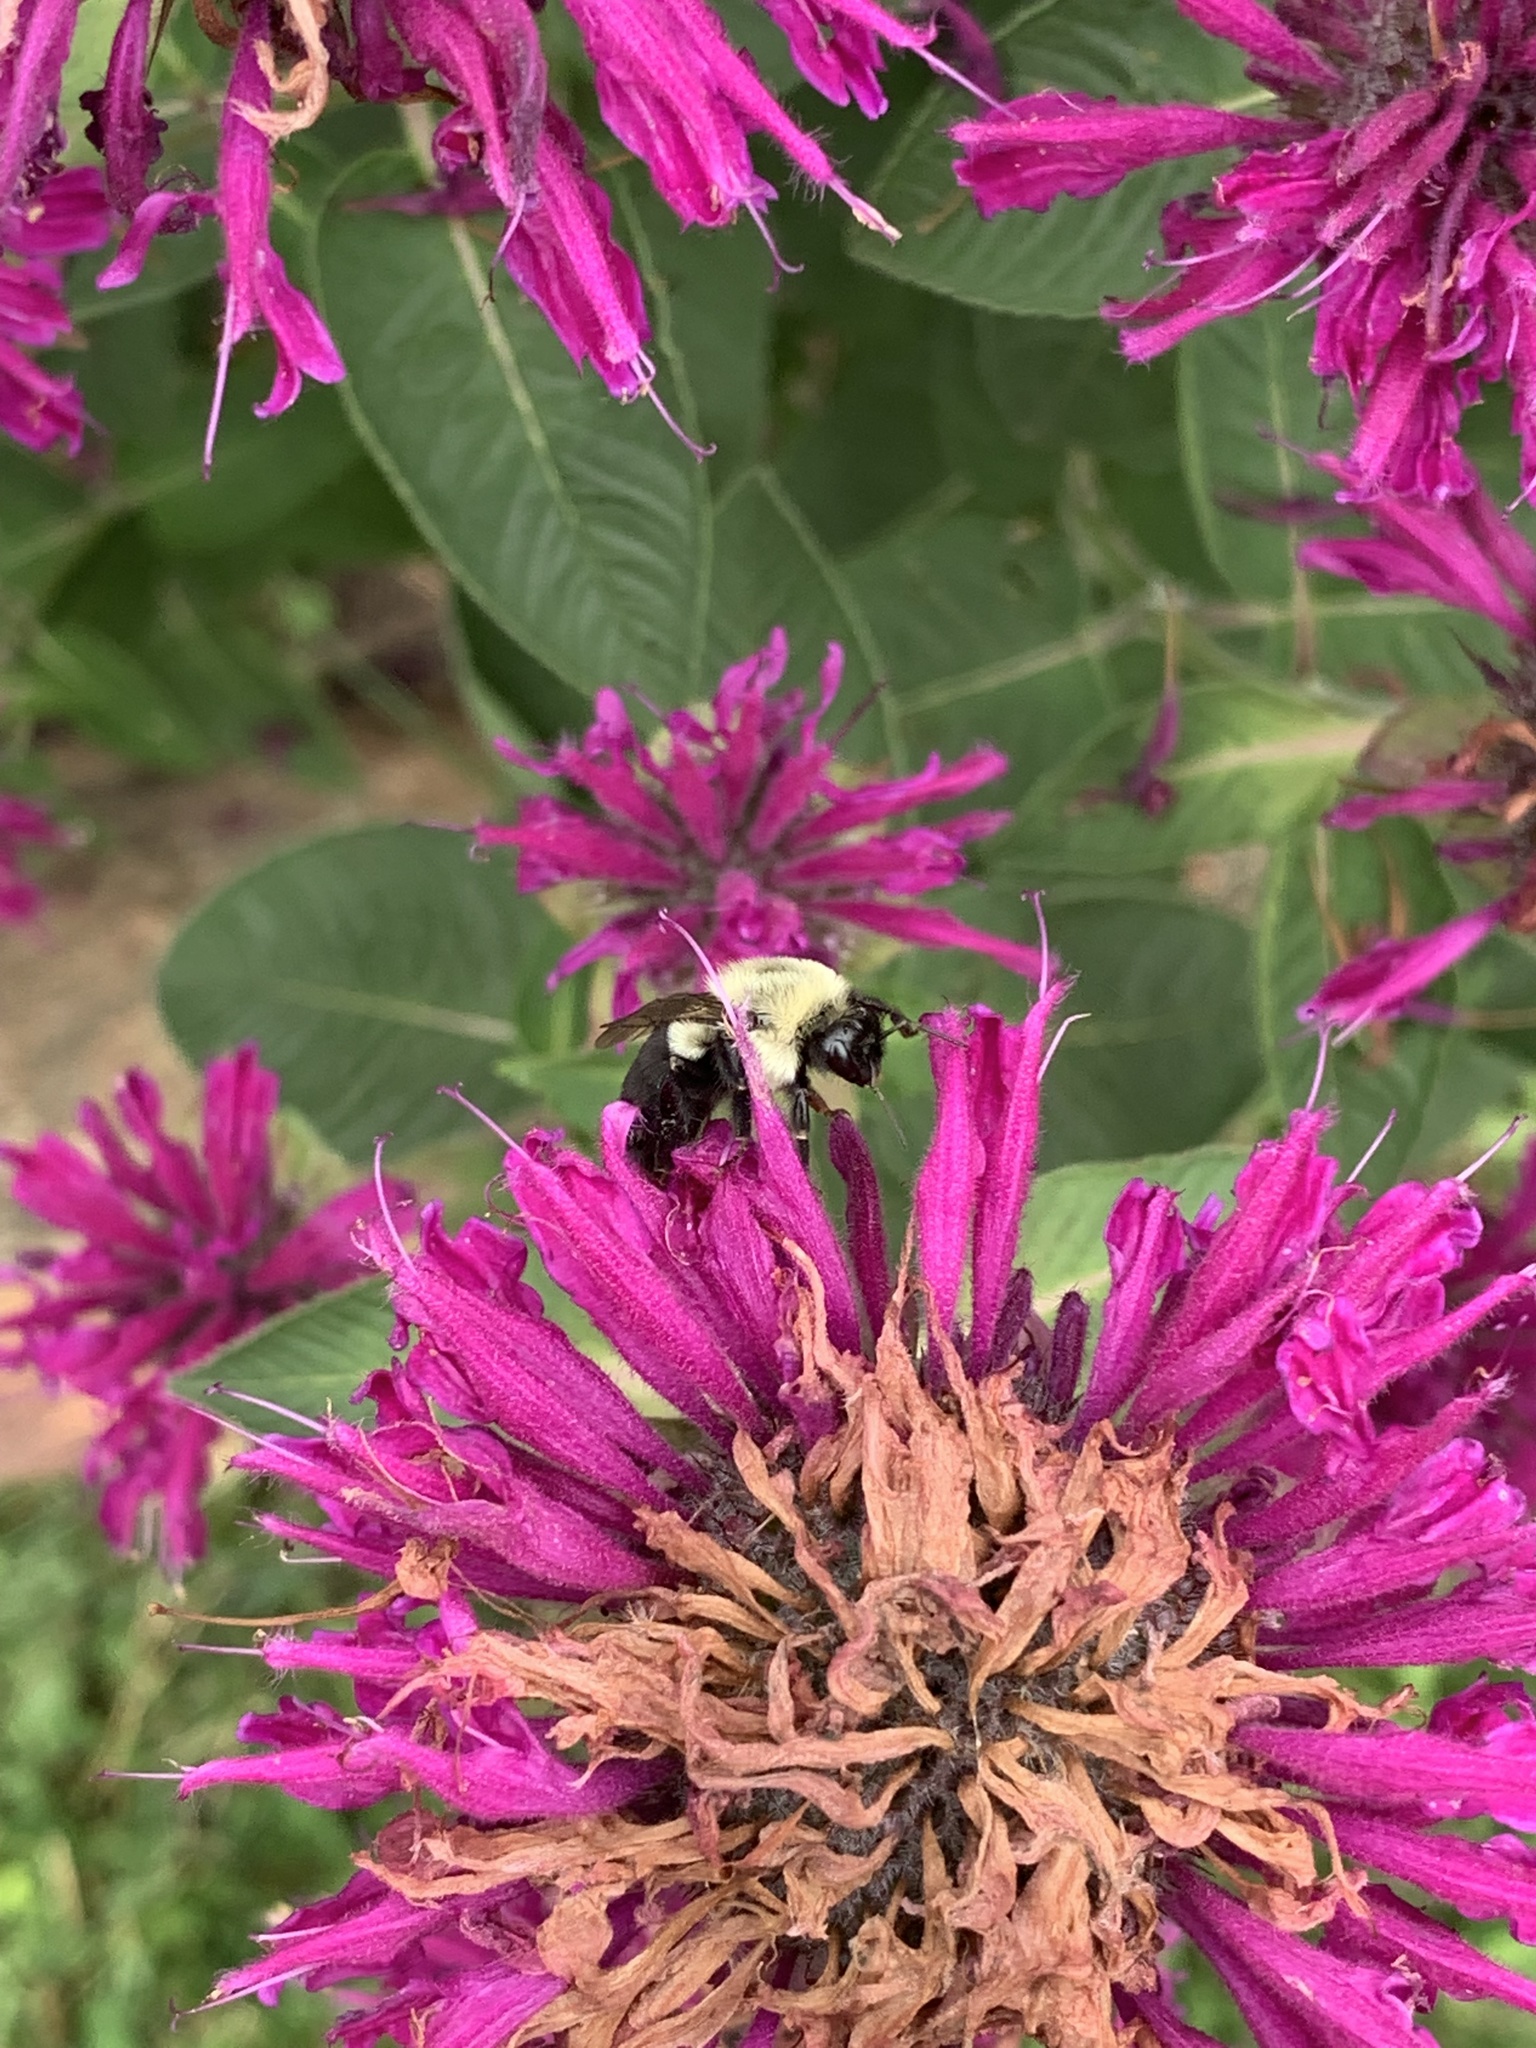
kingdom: Animalia
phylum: Arthropoda
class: Insecta
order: Hymenoptera
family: Apidae
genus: Bombus
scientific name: Bombus impatiens
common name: Common eastern bumble bee
